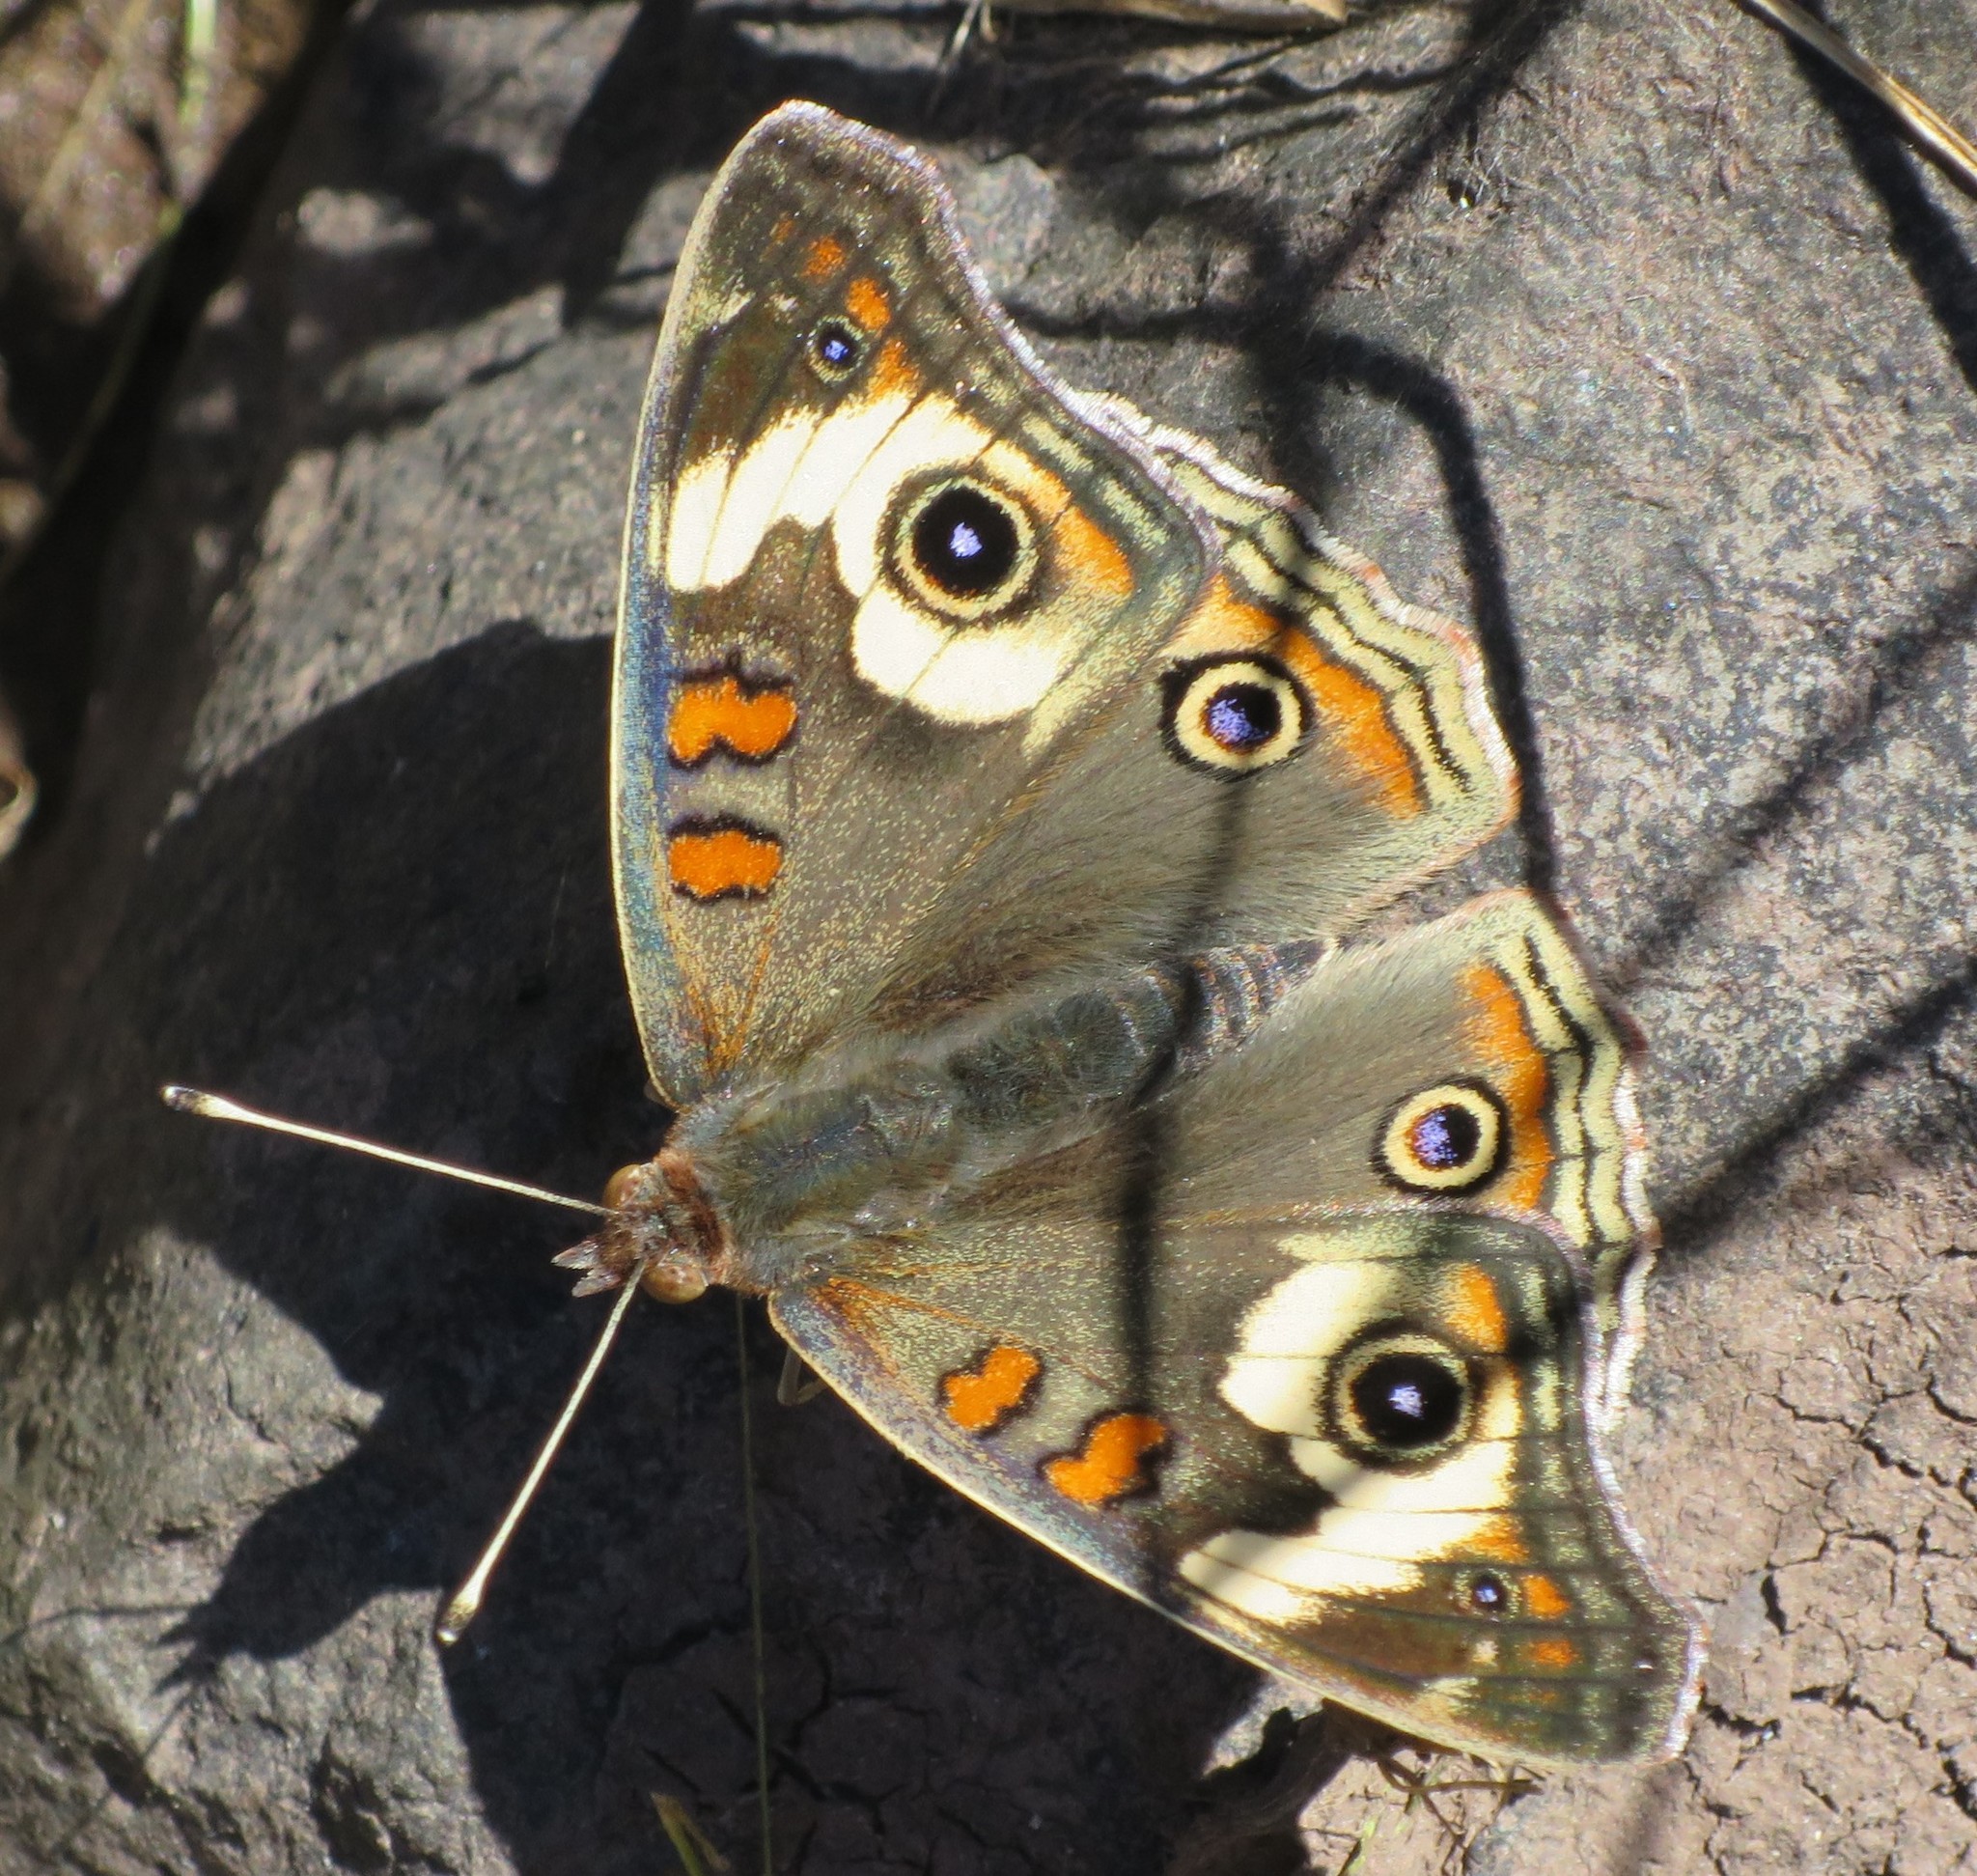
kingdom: Animalia
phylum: Arthropoda
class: Insecta
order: Lepidoptera
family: Nymphalidae
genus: Junonia
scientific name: Junonia grisea
